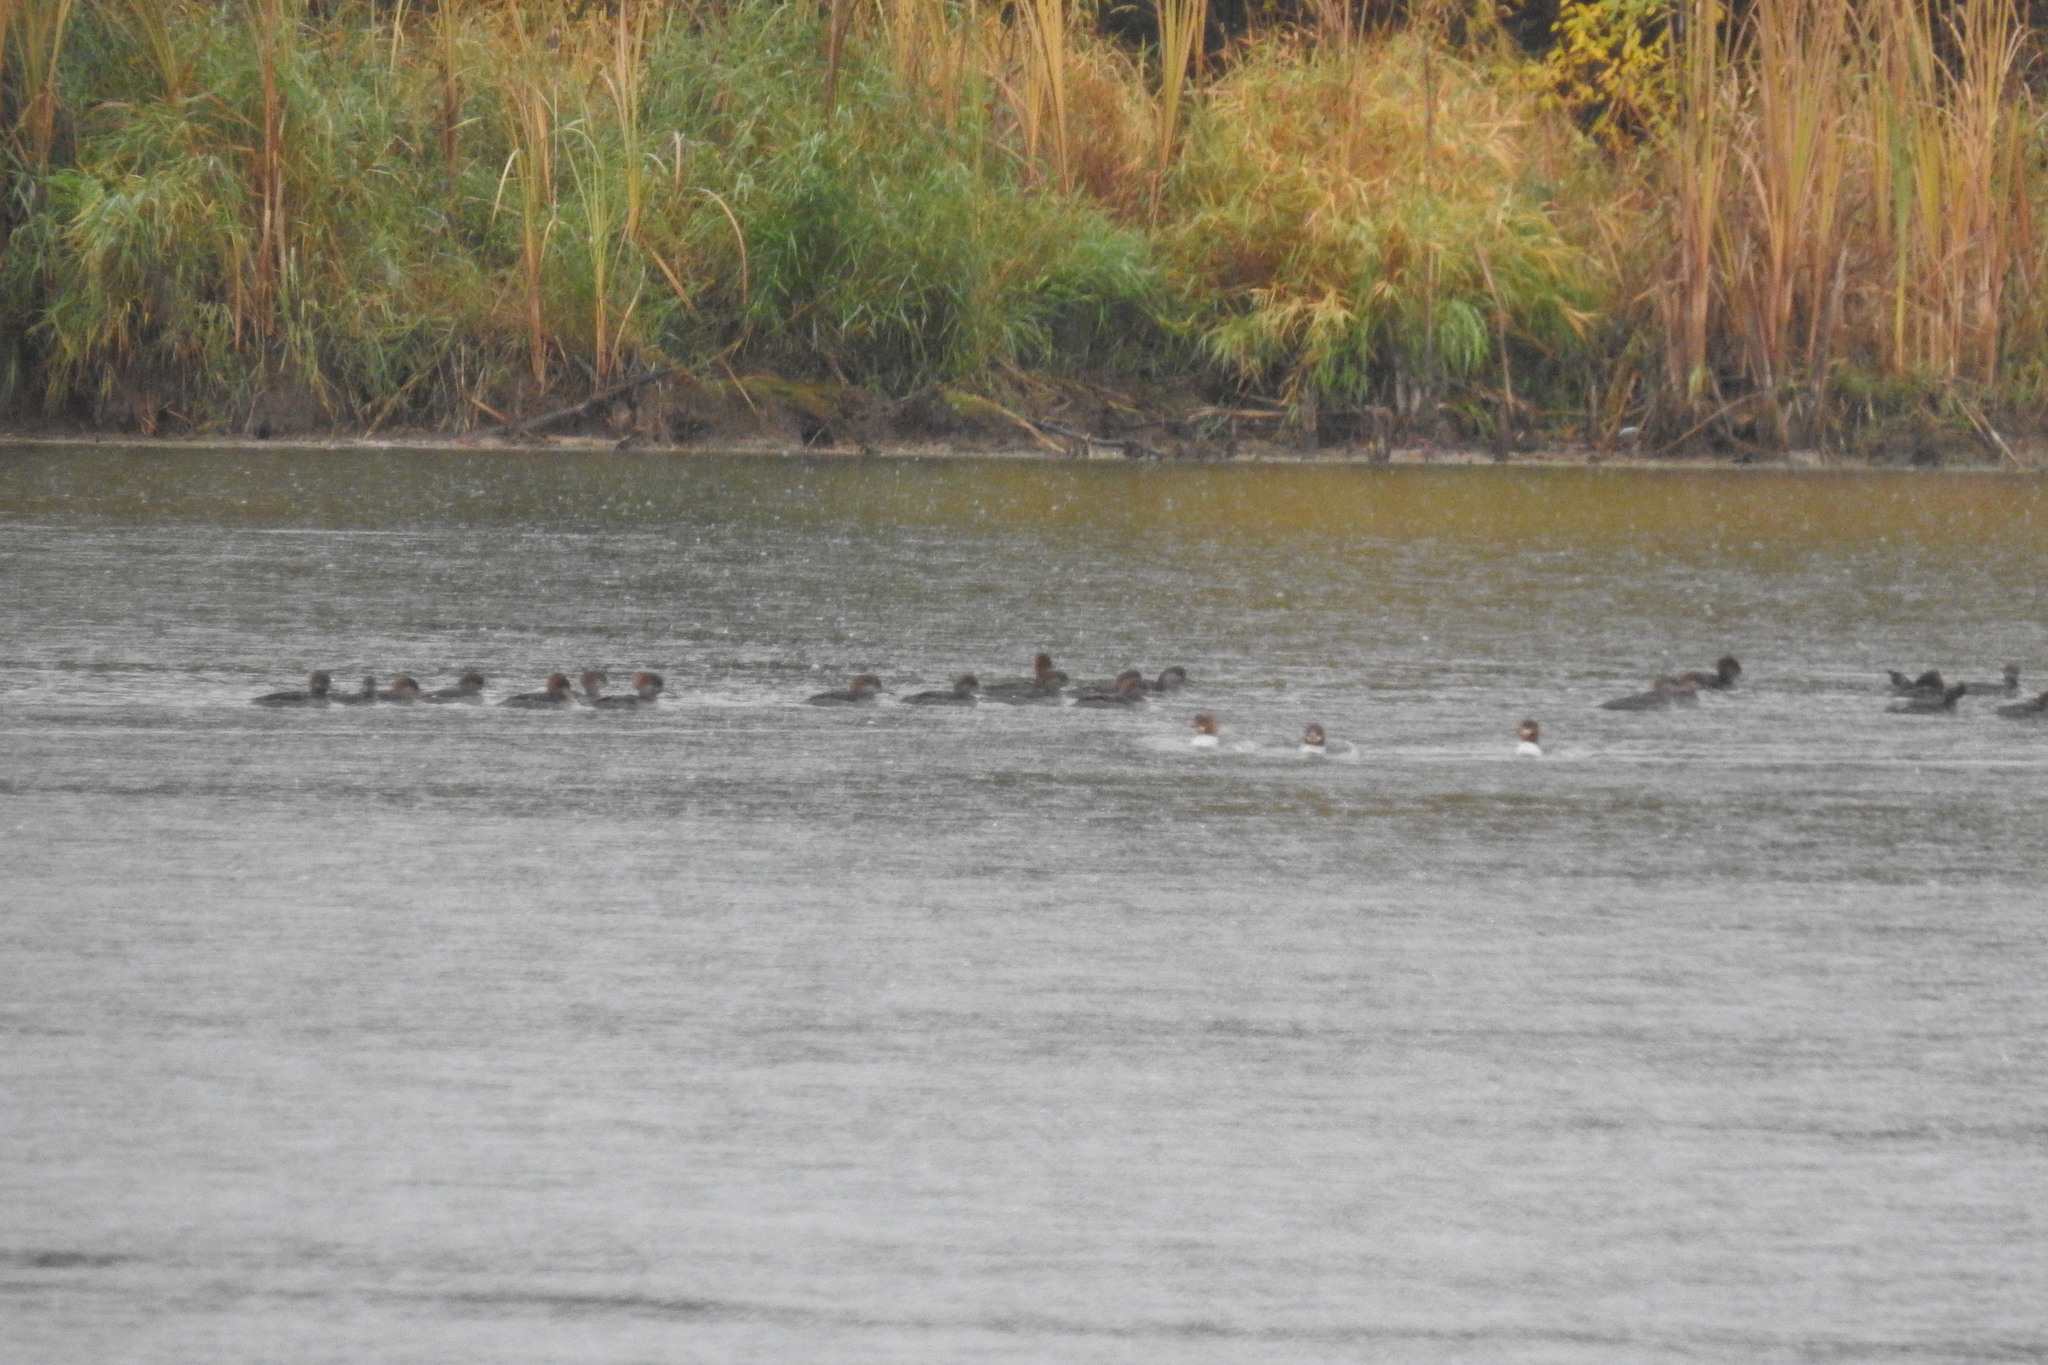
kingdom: Animalia
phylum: Chordata
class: Aves
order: Anseriformes
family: Anatidae
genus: Mergus
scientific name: Mergus merganser
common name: Common merganser
